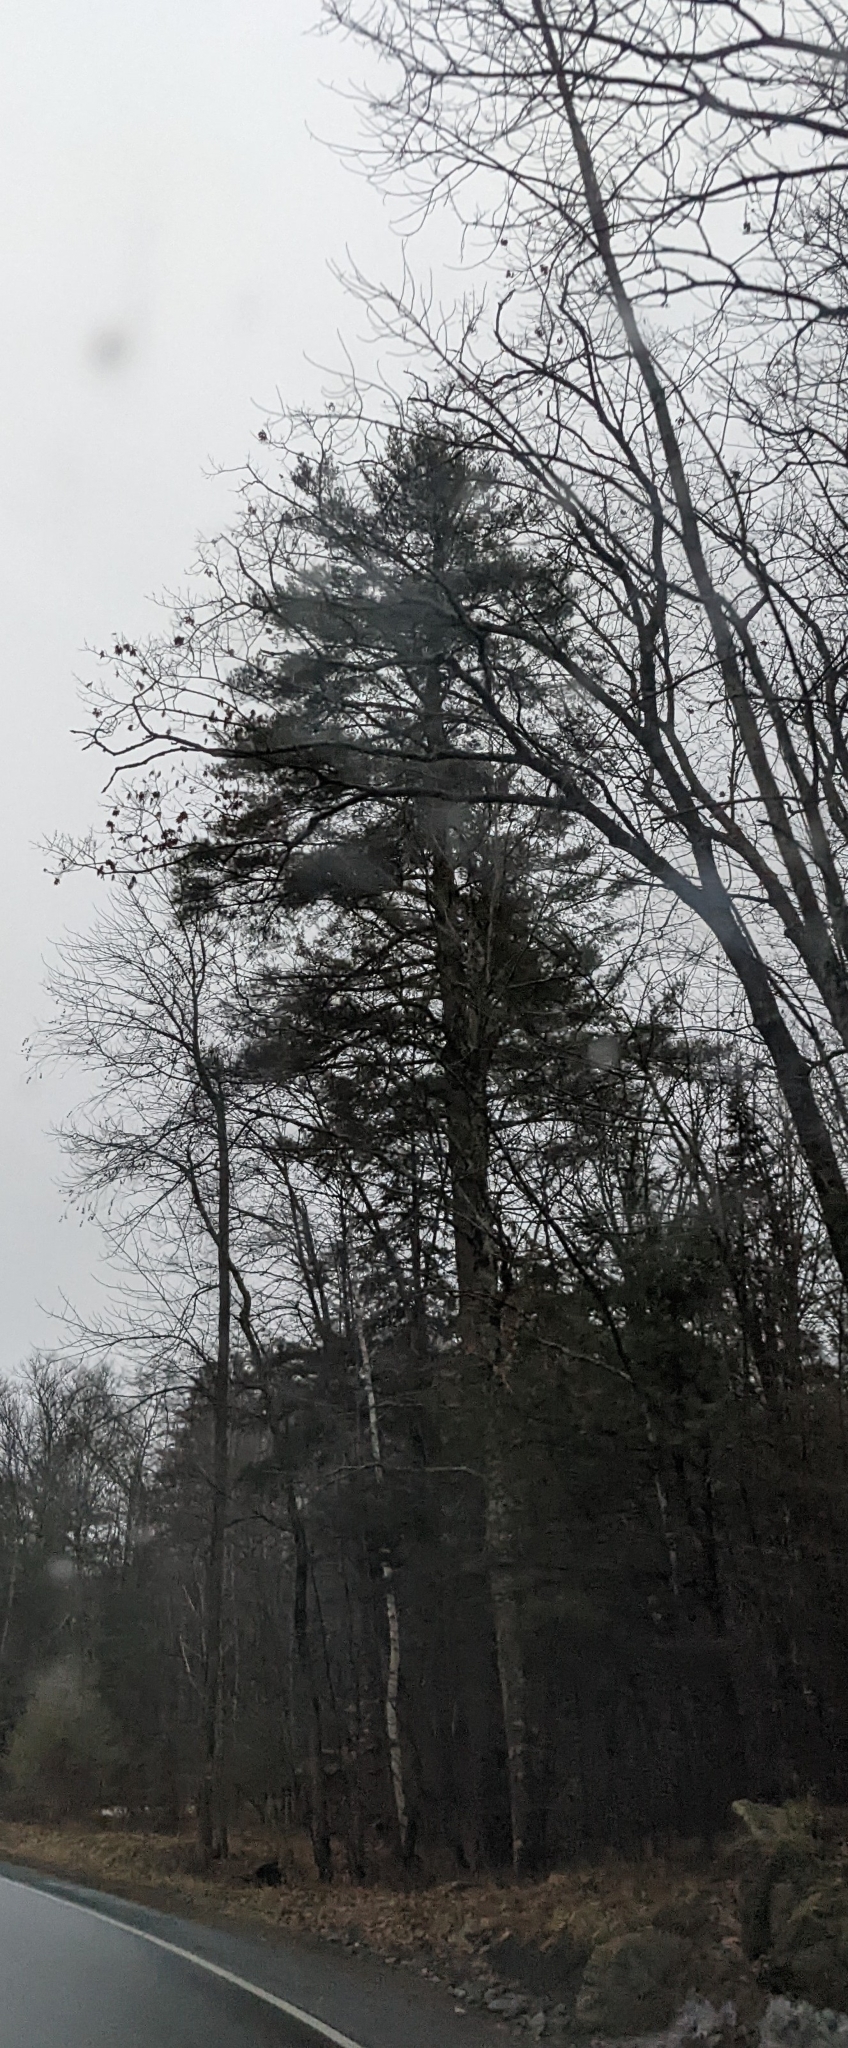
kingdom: Plantae
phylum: Tracheophyta
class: Pinopsida
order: Pinales
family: Pinaceae
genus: Pinus
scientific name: Pinus strobus
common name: Weymouth pine
